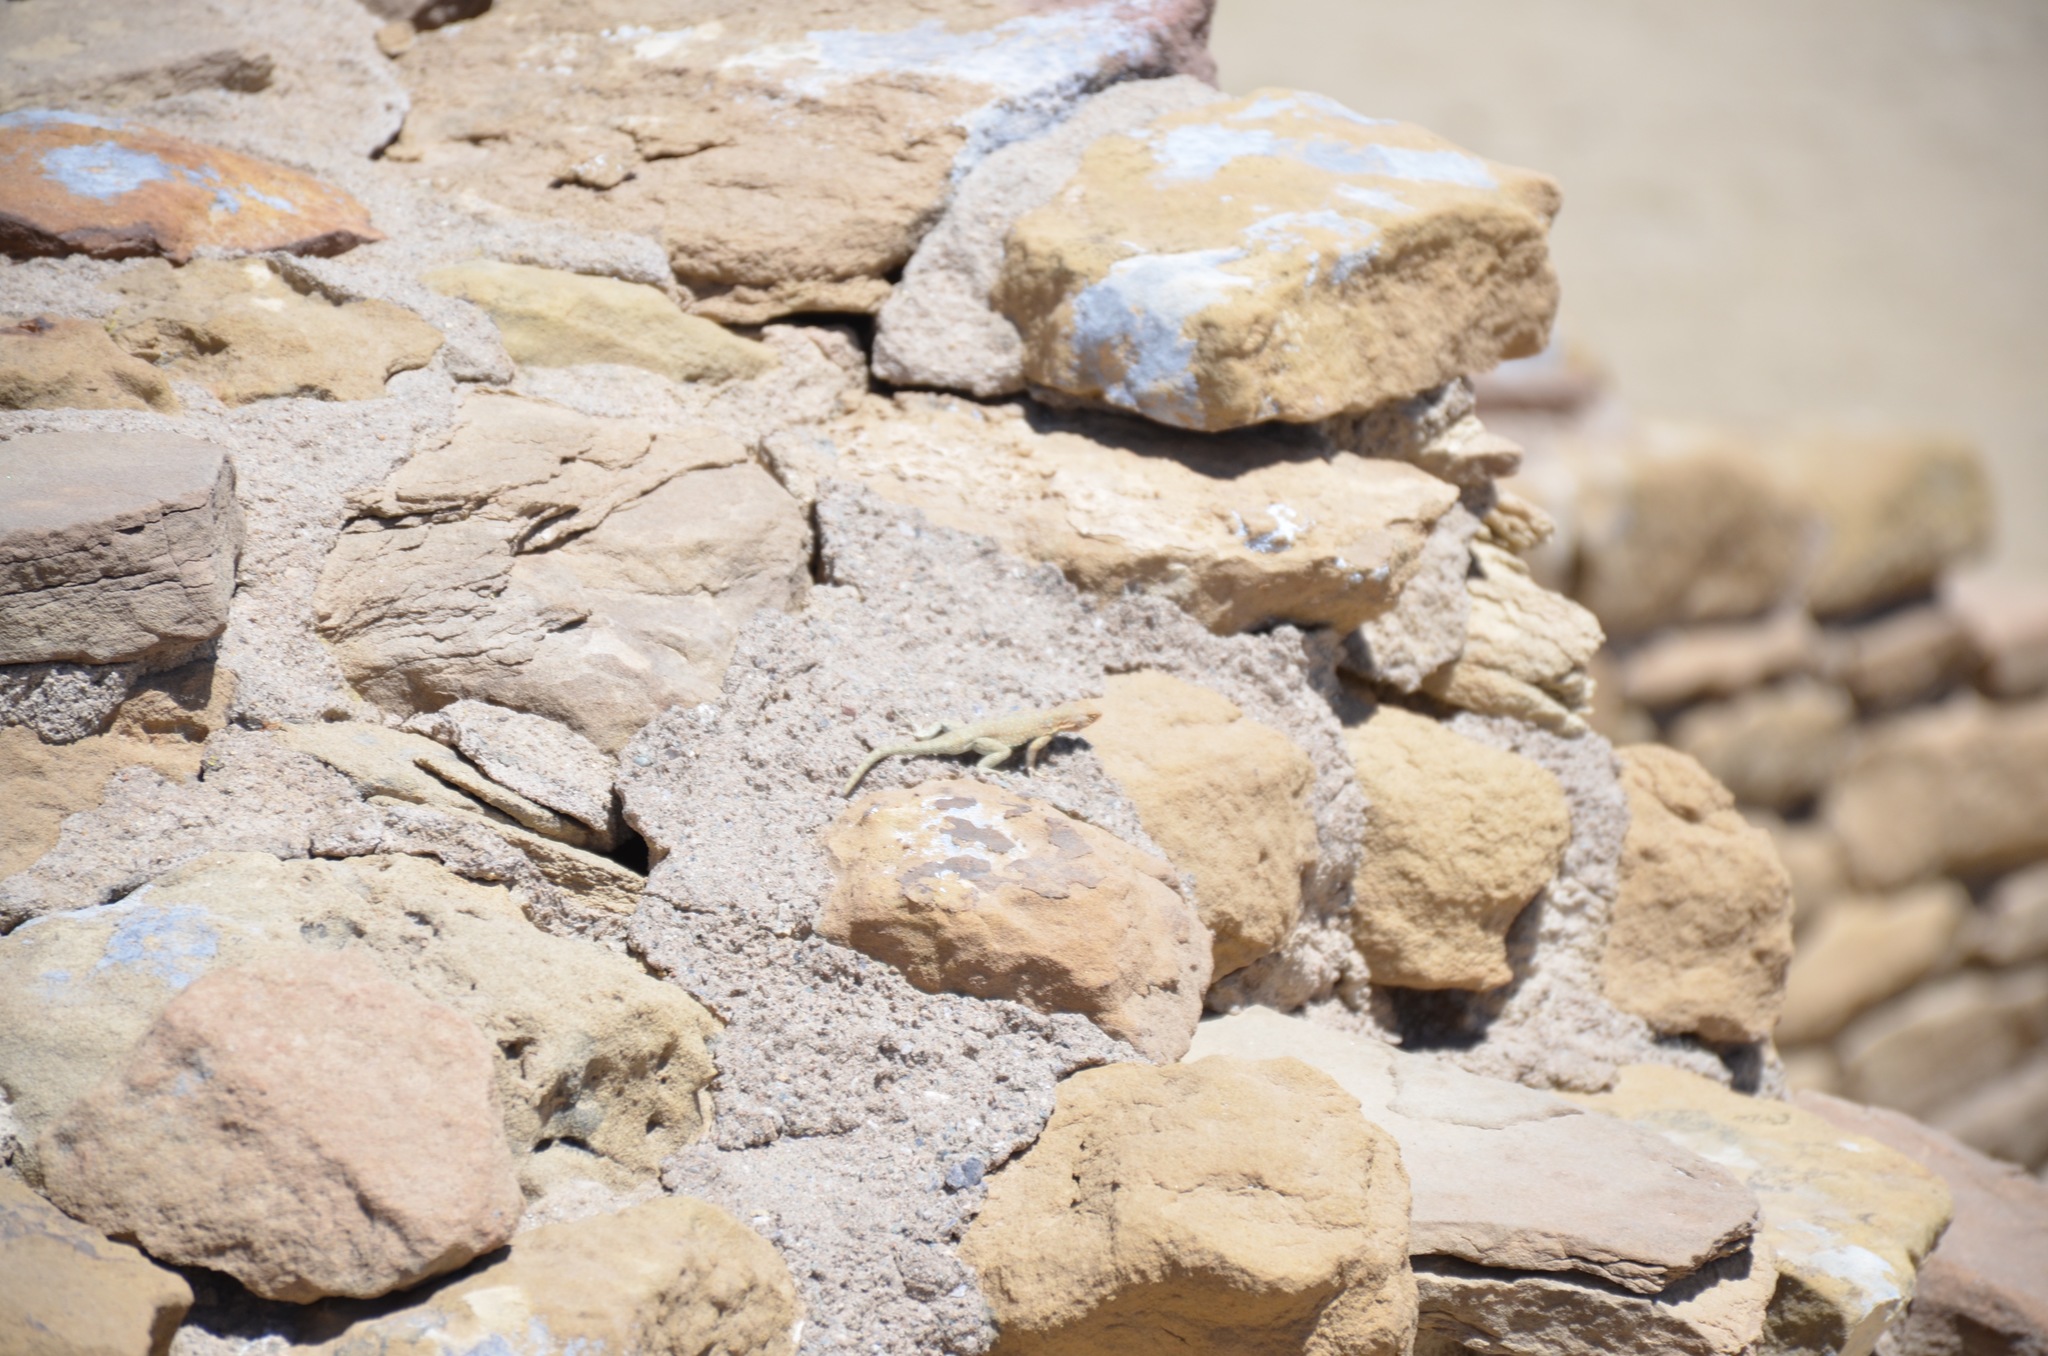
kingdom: Animalia
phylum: Chordata
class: Squamata
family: Phrynosomatidae
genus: Uta
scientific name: Uta stansburiana
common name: Side-blotched lizard
